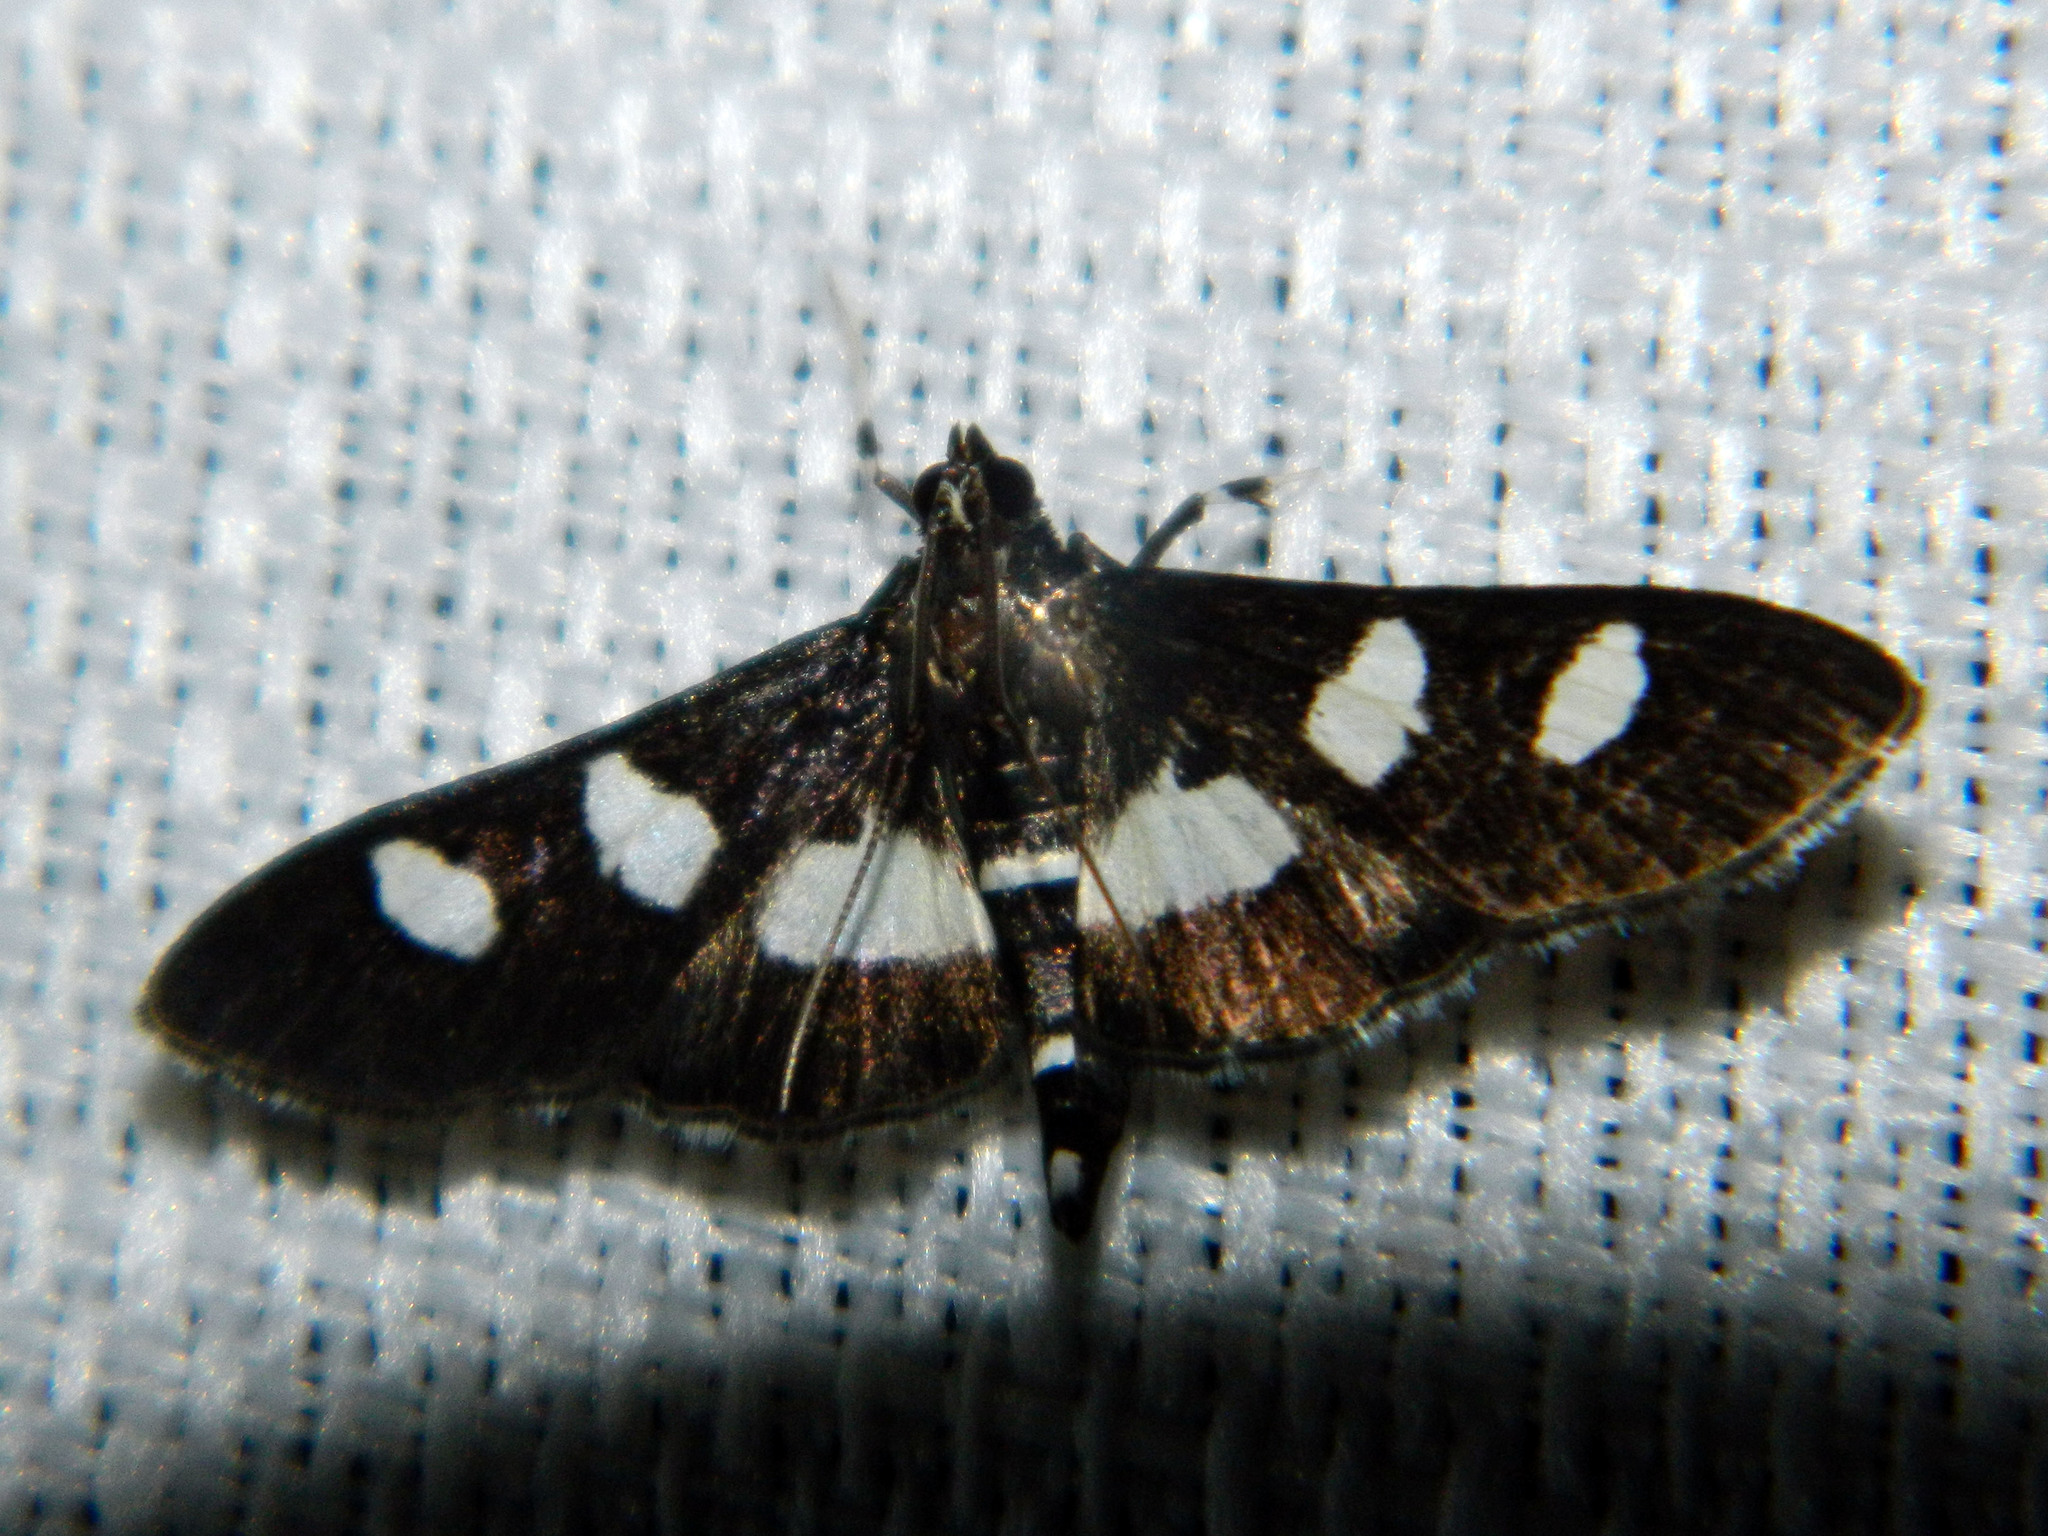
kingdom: Animalia
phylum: Arthropoda
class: Insecta
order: Lepidoptera
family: Crambidae
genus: Desmia
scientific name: Desmia
